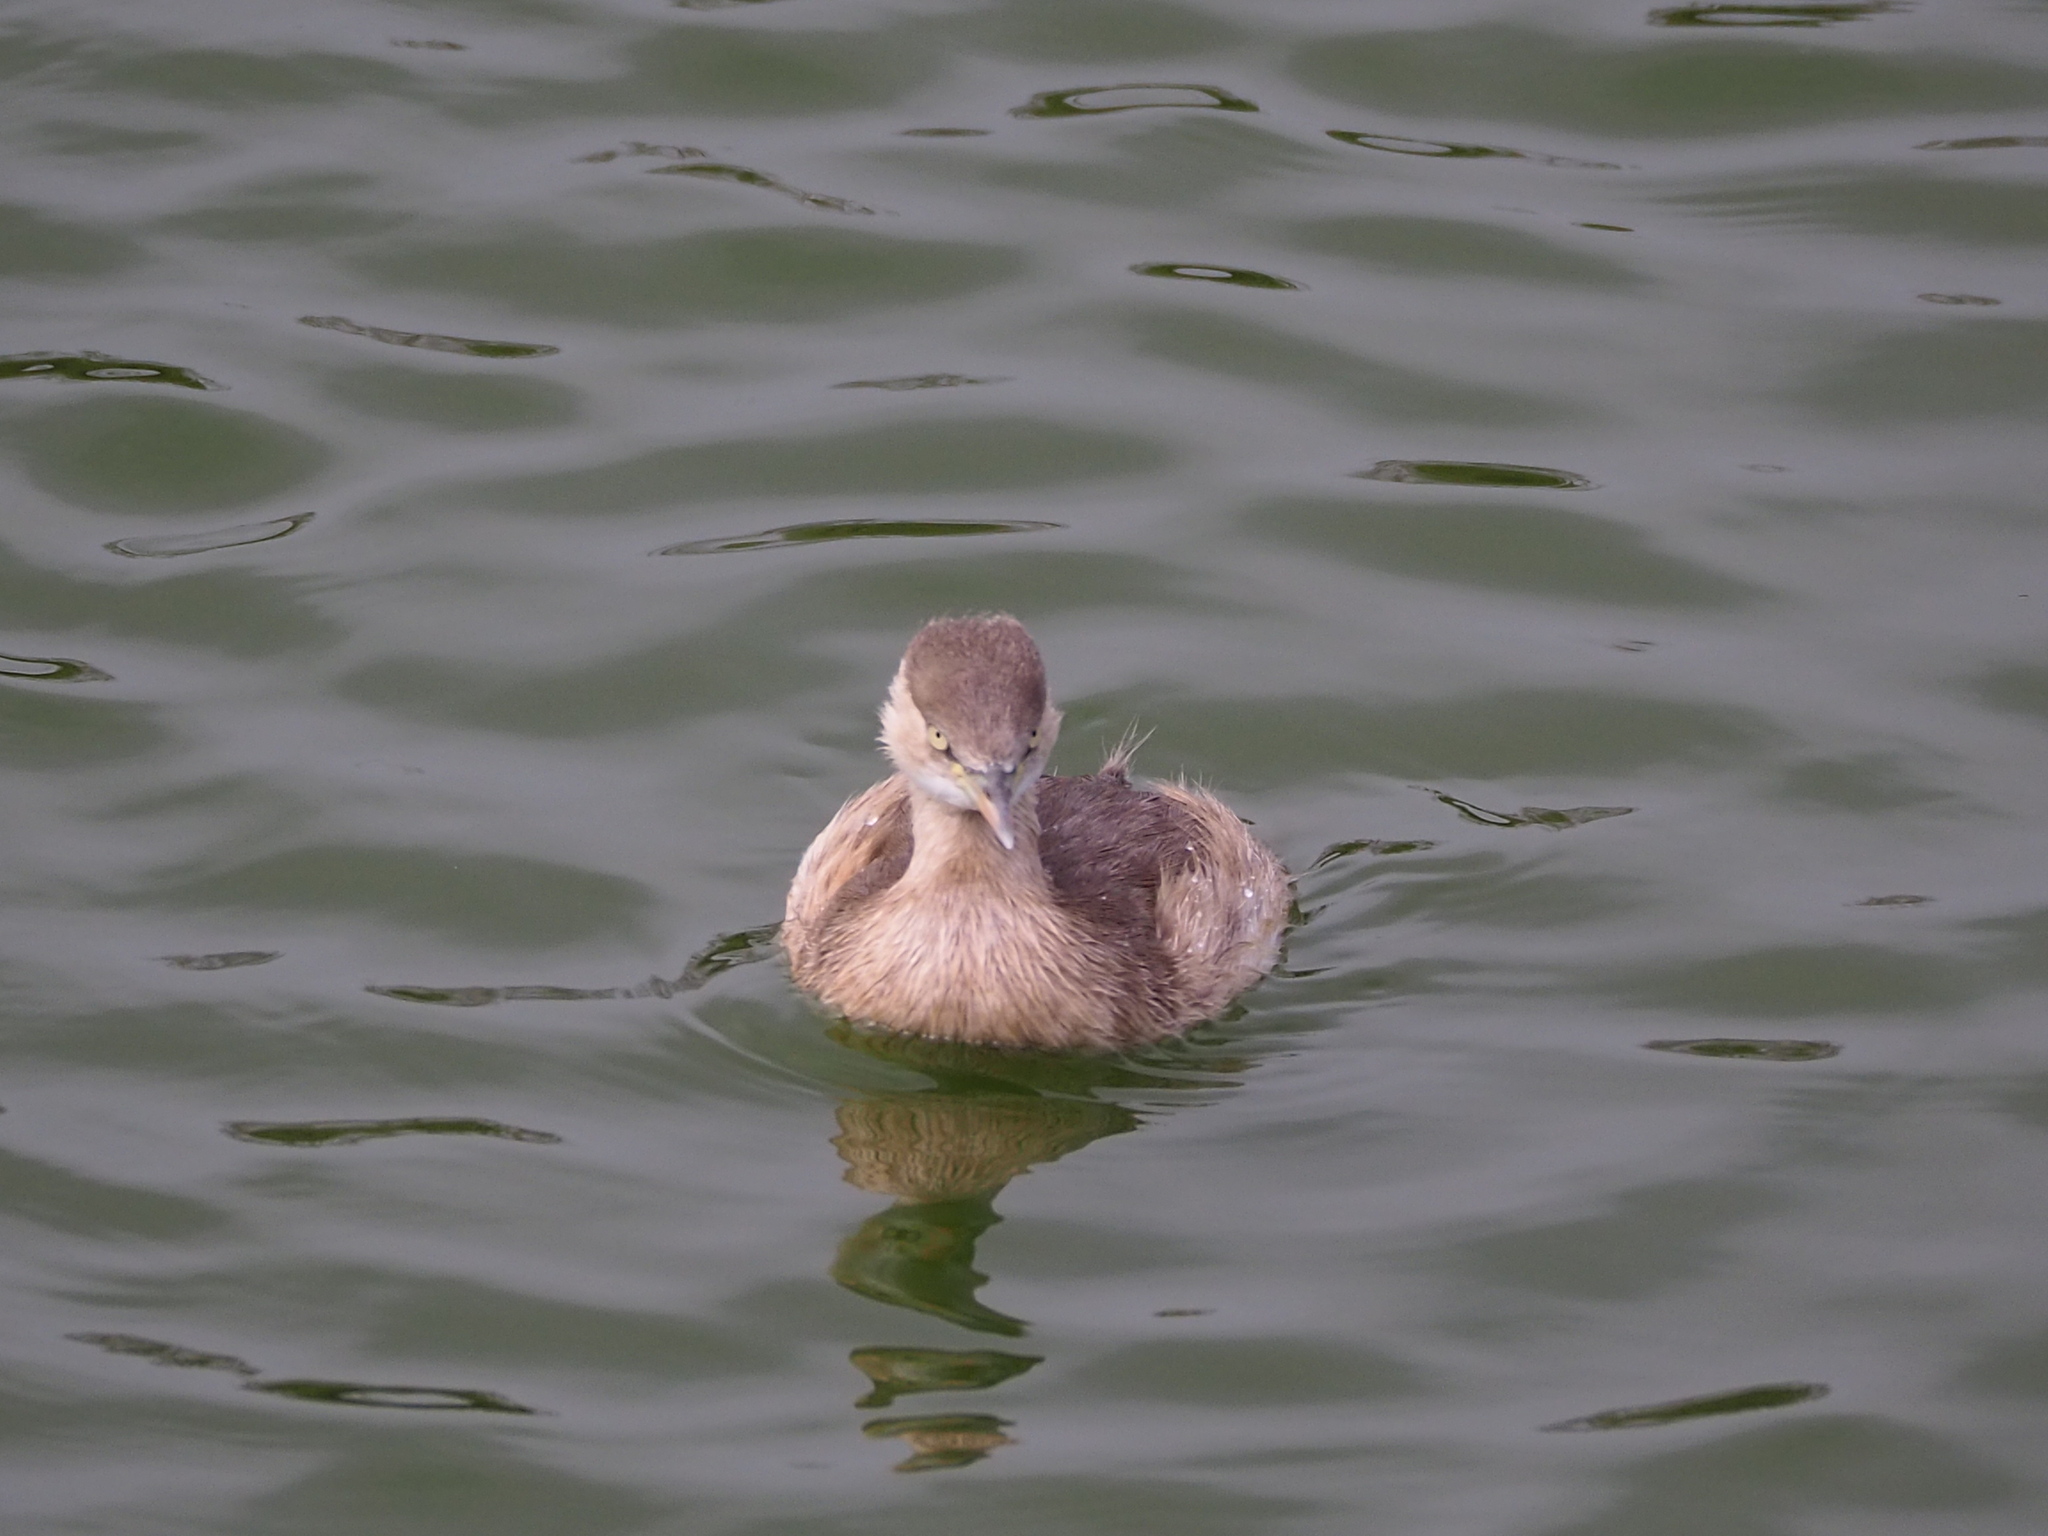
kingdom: Animalia
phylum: Chordata
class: Aves
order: Podicipediformes
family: Podicipedidae
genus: Tachybaptus
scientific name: Tachybaptus ruficollis
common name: Little grebe
